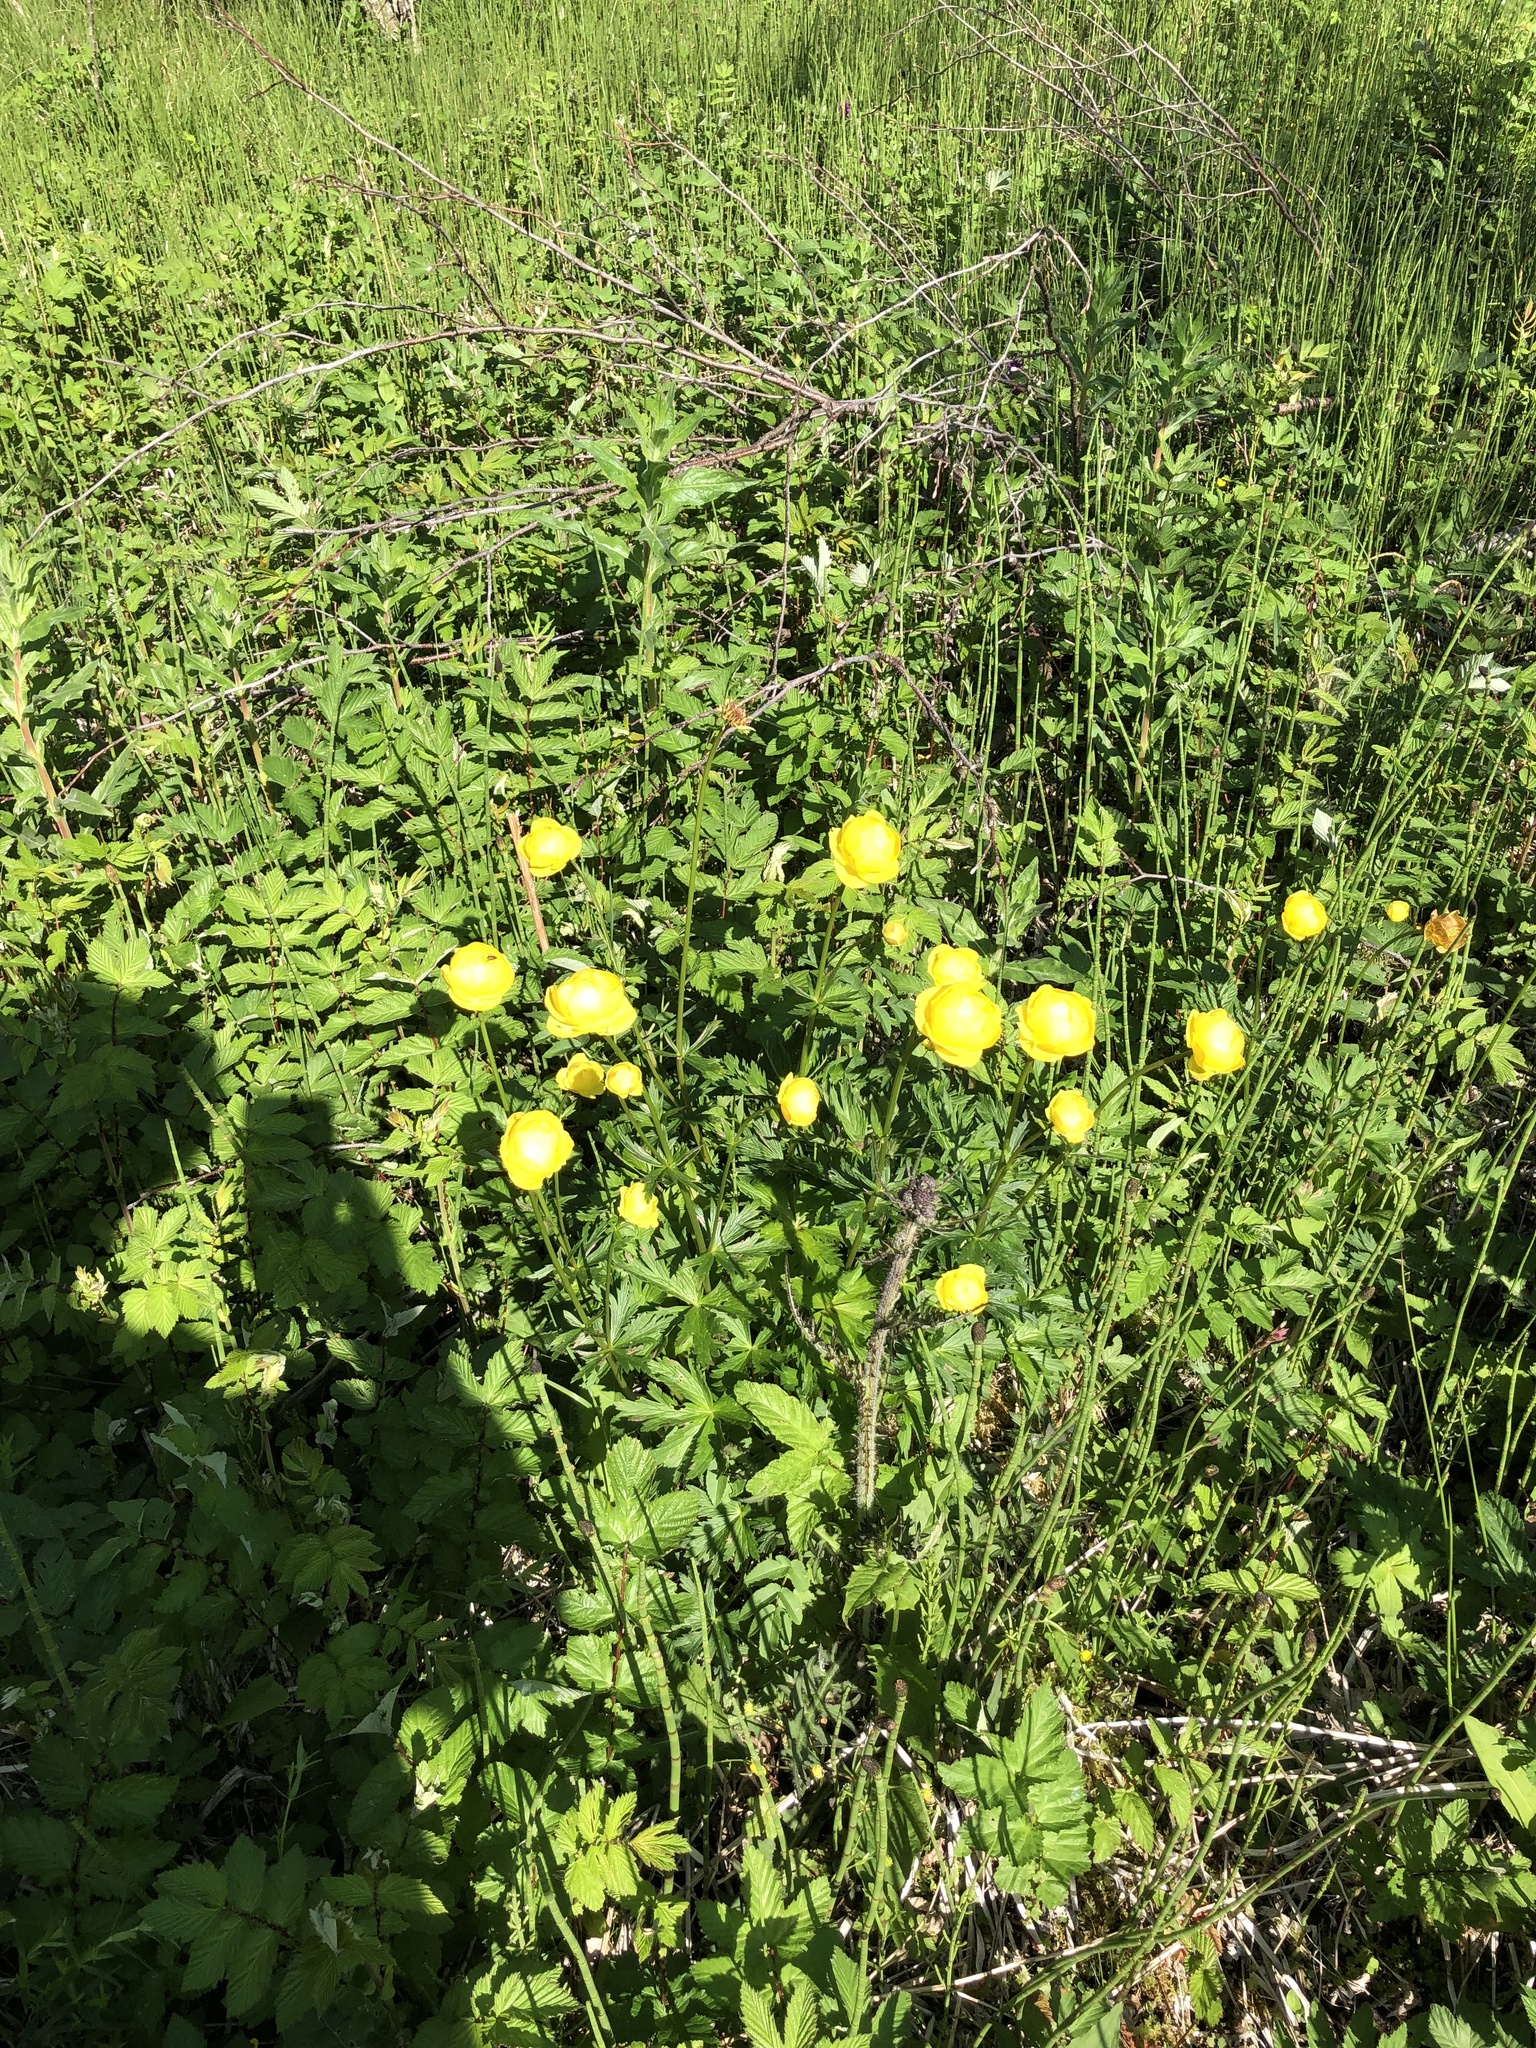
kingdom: Plantae
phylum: Tracheophyta
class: Magnoliopsida
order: Ranunculales
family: Ranunculaceae
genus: Trollius
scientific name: Trollius europaeus
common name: European globeflower
